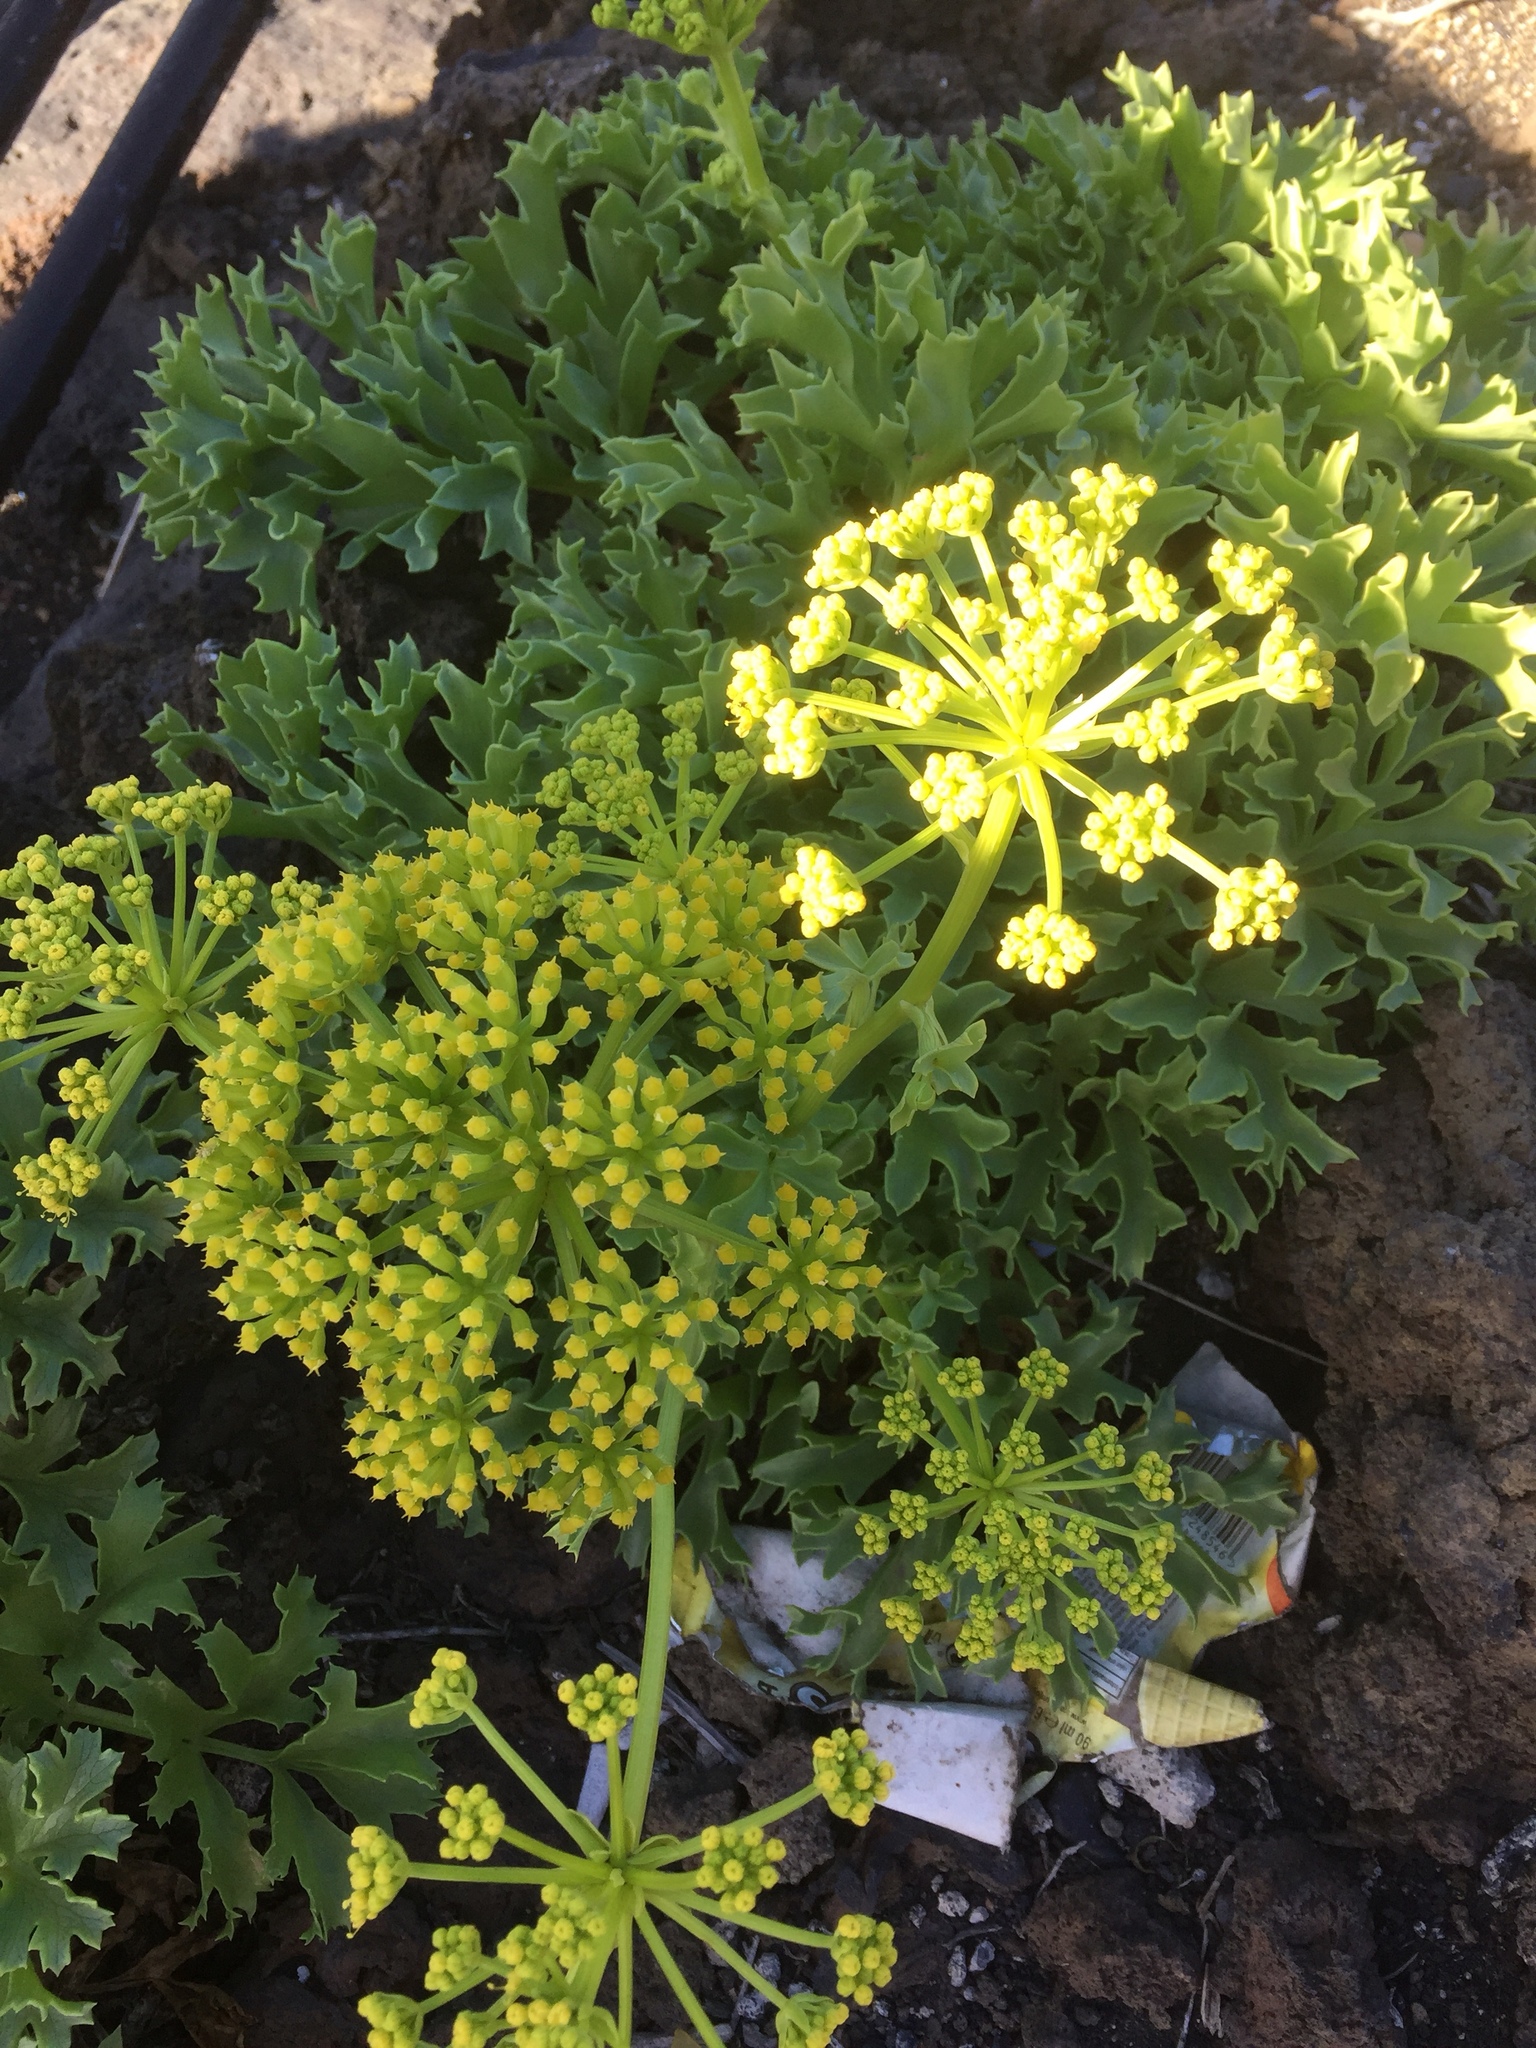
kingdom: Plantae
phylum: Tracheophyta
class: Magnoliopsida
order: Apiales
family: Apiaceae
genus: Astydamia
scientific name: Astydamia latifolia
